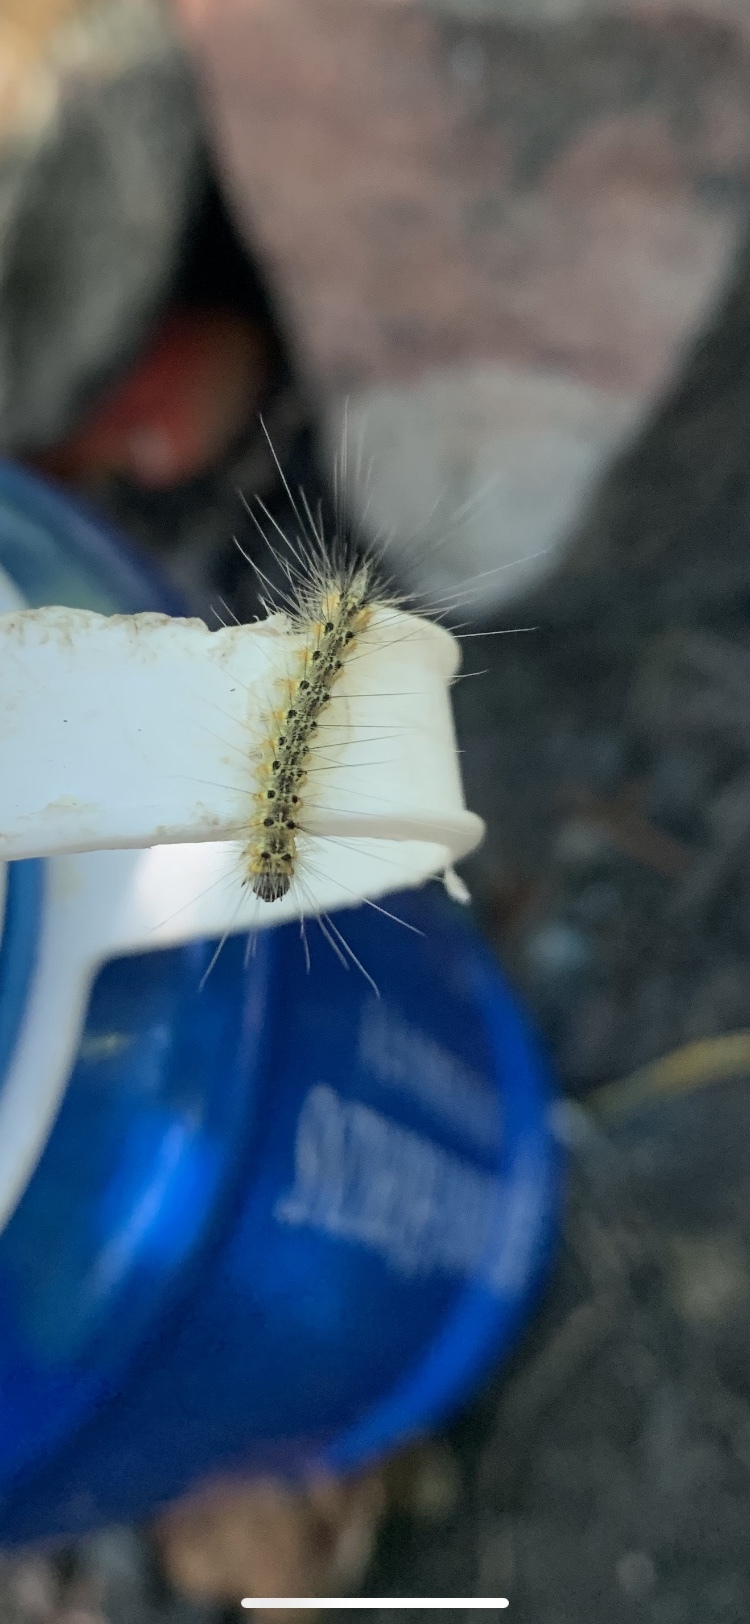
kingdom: Animalia
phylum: Arthropoda
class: Insecta
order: Lepidoptera
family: Erebidae
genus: Hyphantria
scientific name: Hyphantria cunea
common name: American white moth
